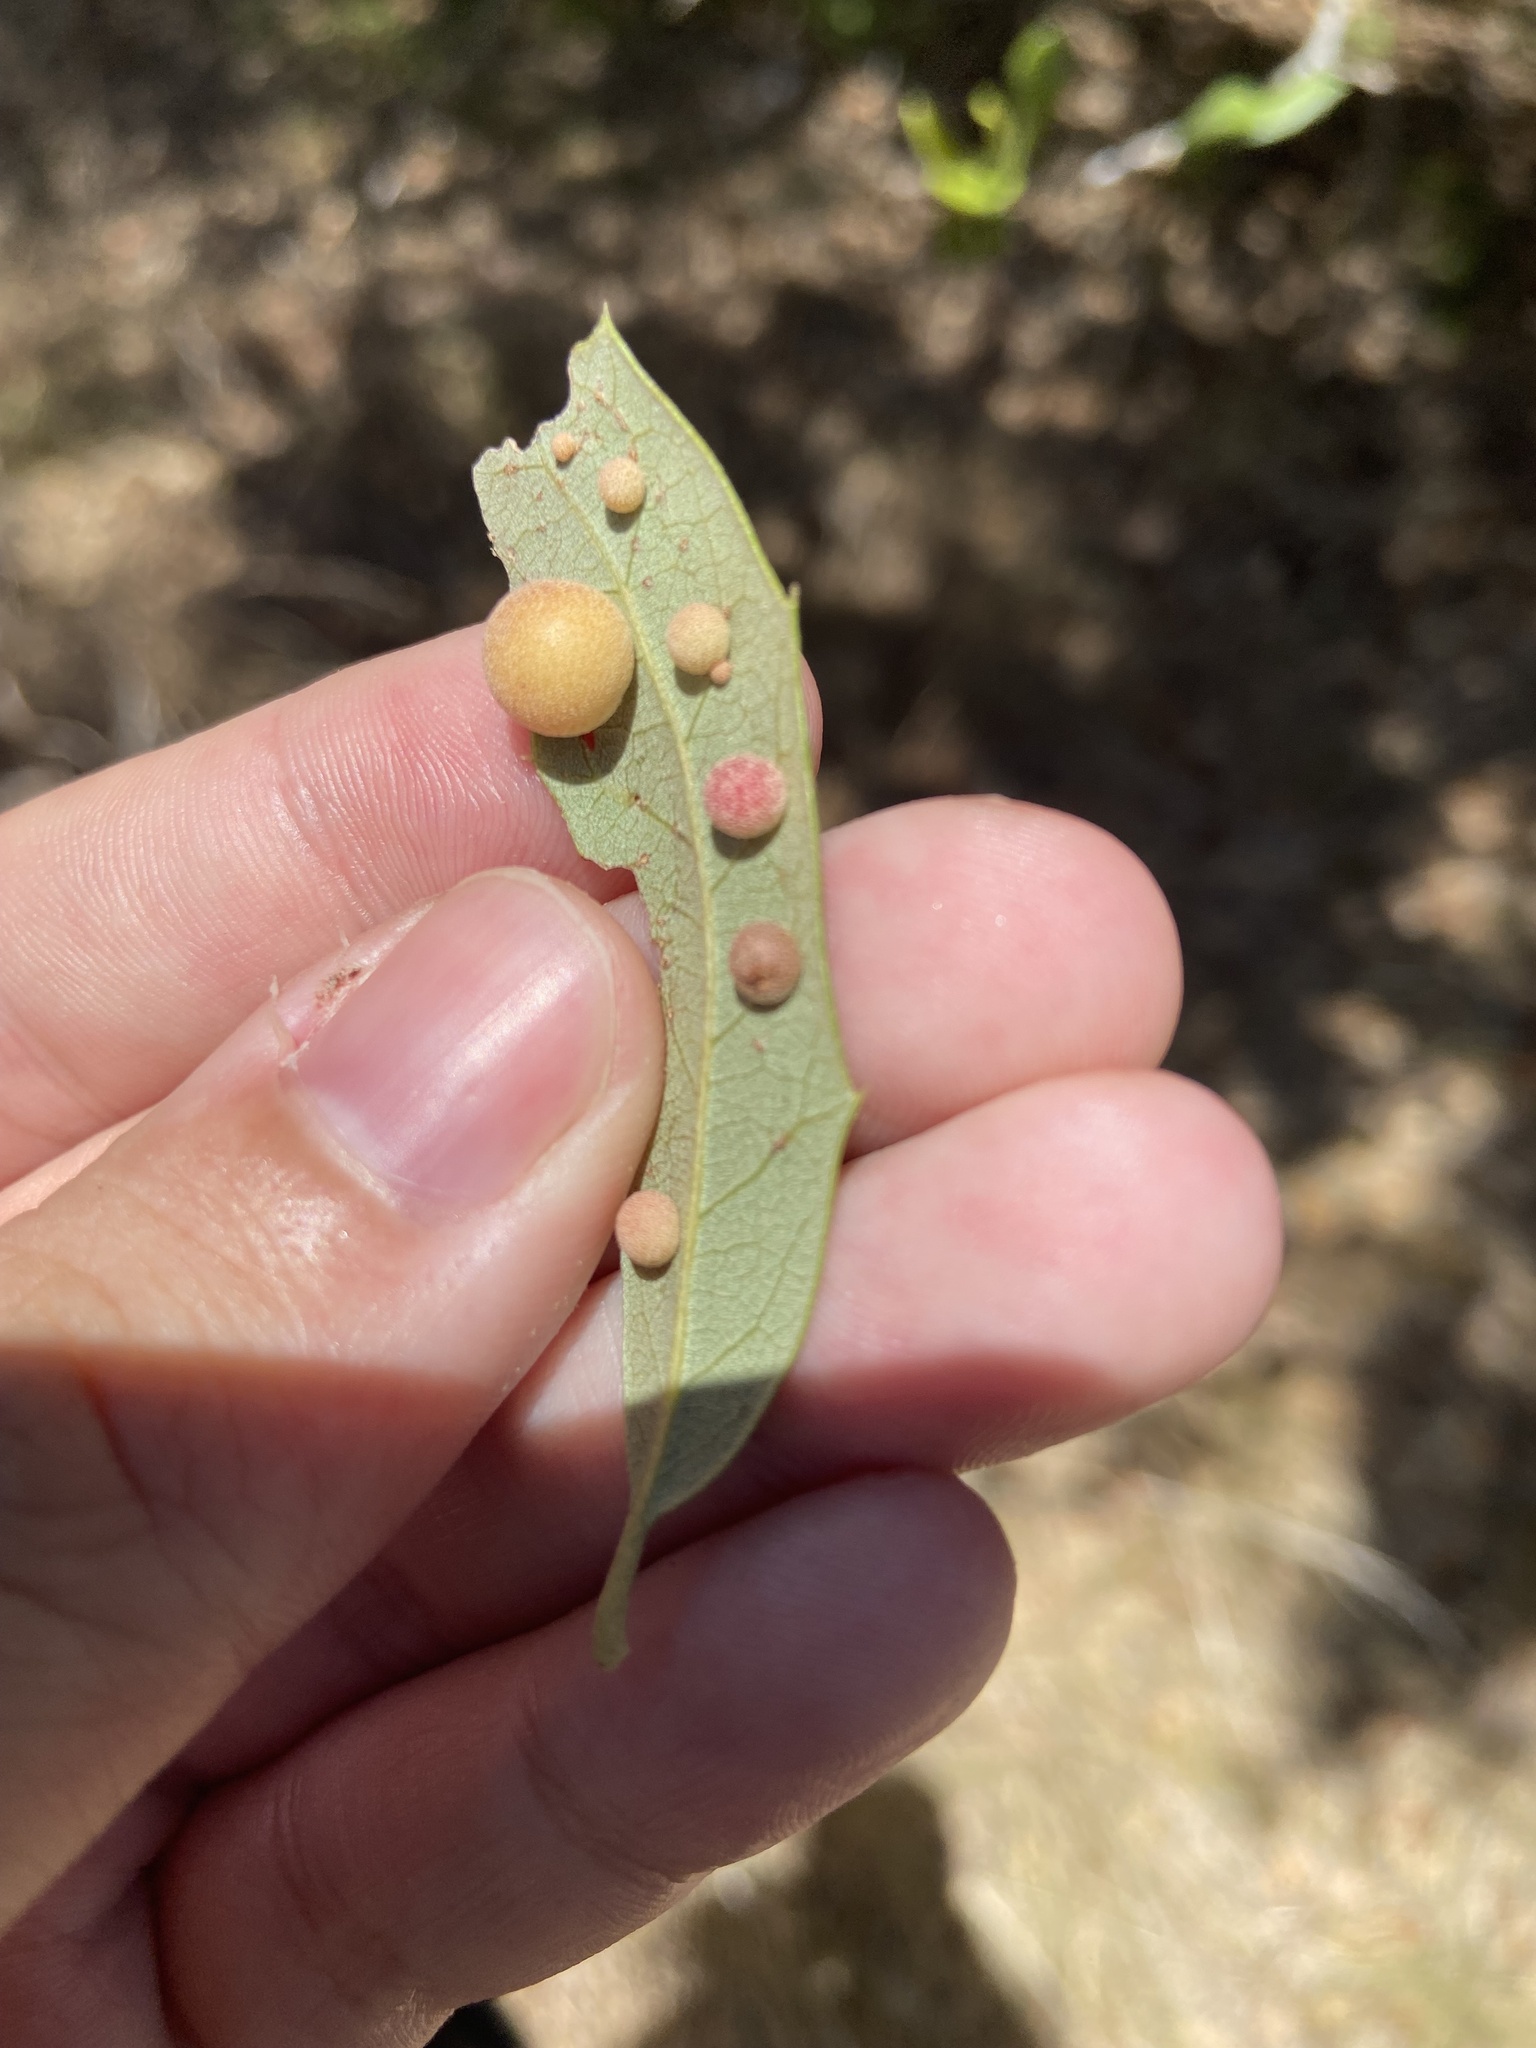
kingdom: Animalia
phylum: Arthropoda
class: Insecta
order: Hymenoptera
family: Cynipidae
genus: Belonocnema
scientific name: Belonocnema kinseyi
